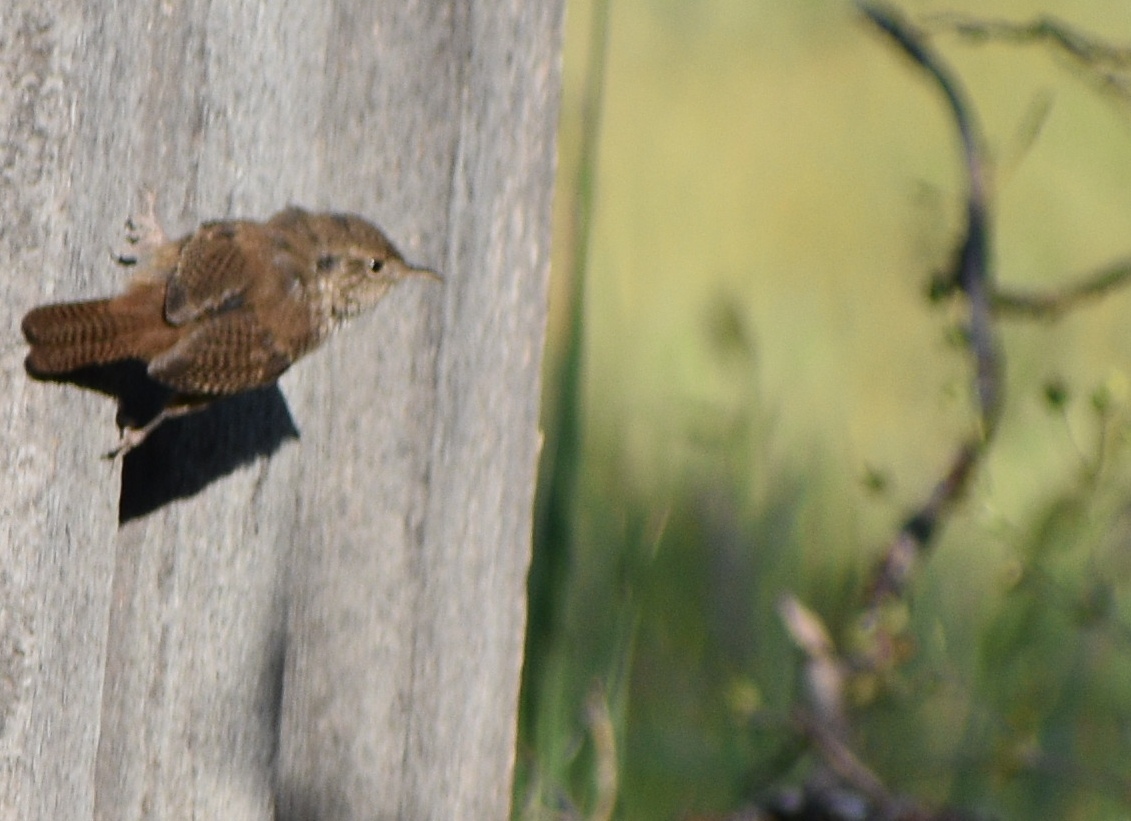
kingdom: Animalia
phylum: Chordata
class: Aves
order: Passeriformes
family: Troglodytidae
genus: Troglodytes
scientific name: Troglodytes aedon
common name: House wren
